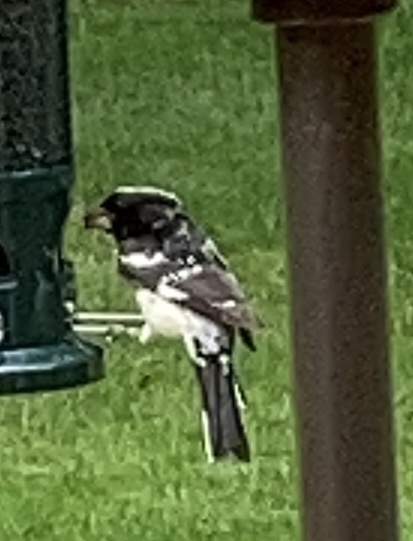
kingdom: Animalia
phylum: Chordata
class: Aves
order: Passeriformes
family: Cardinalidae
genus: Pheucticus
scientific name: Pheucticus ludovicianus
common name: Rose-breasted grosbeak
